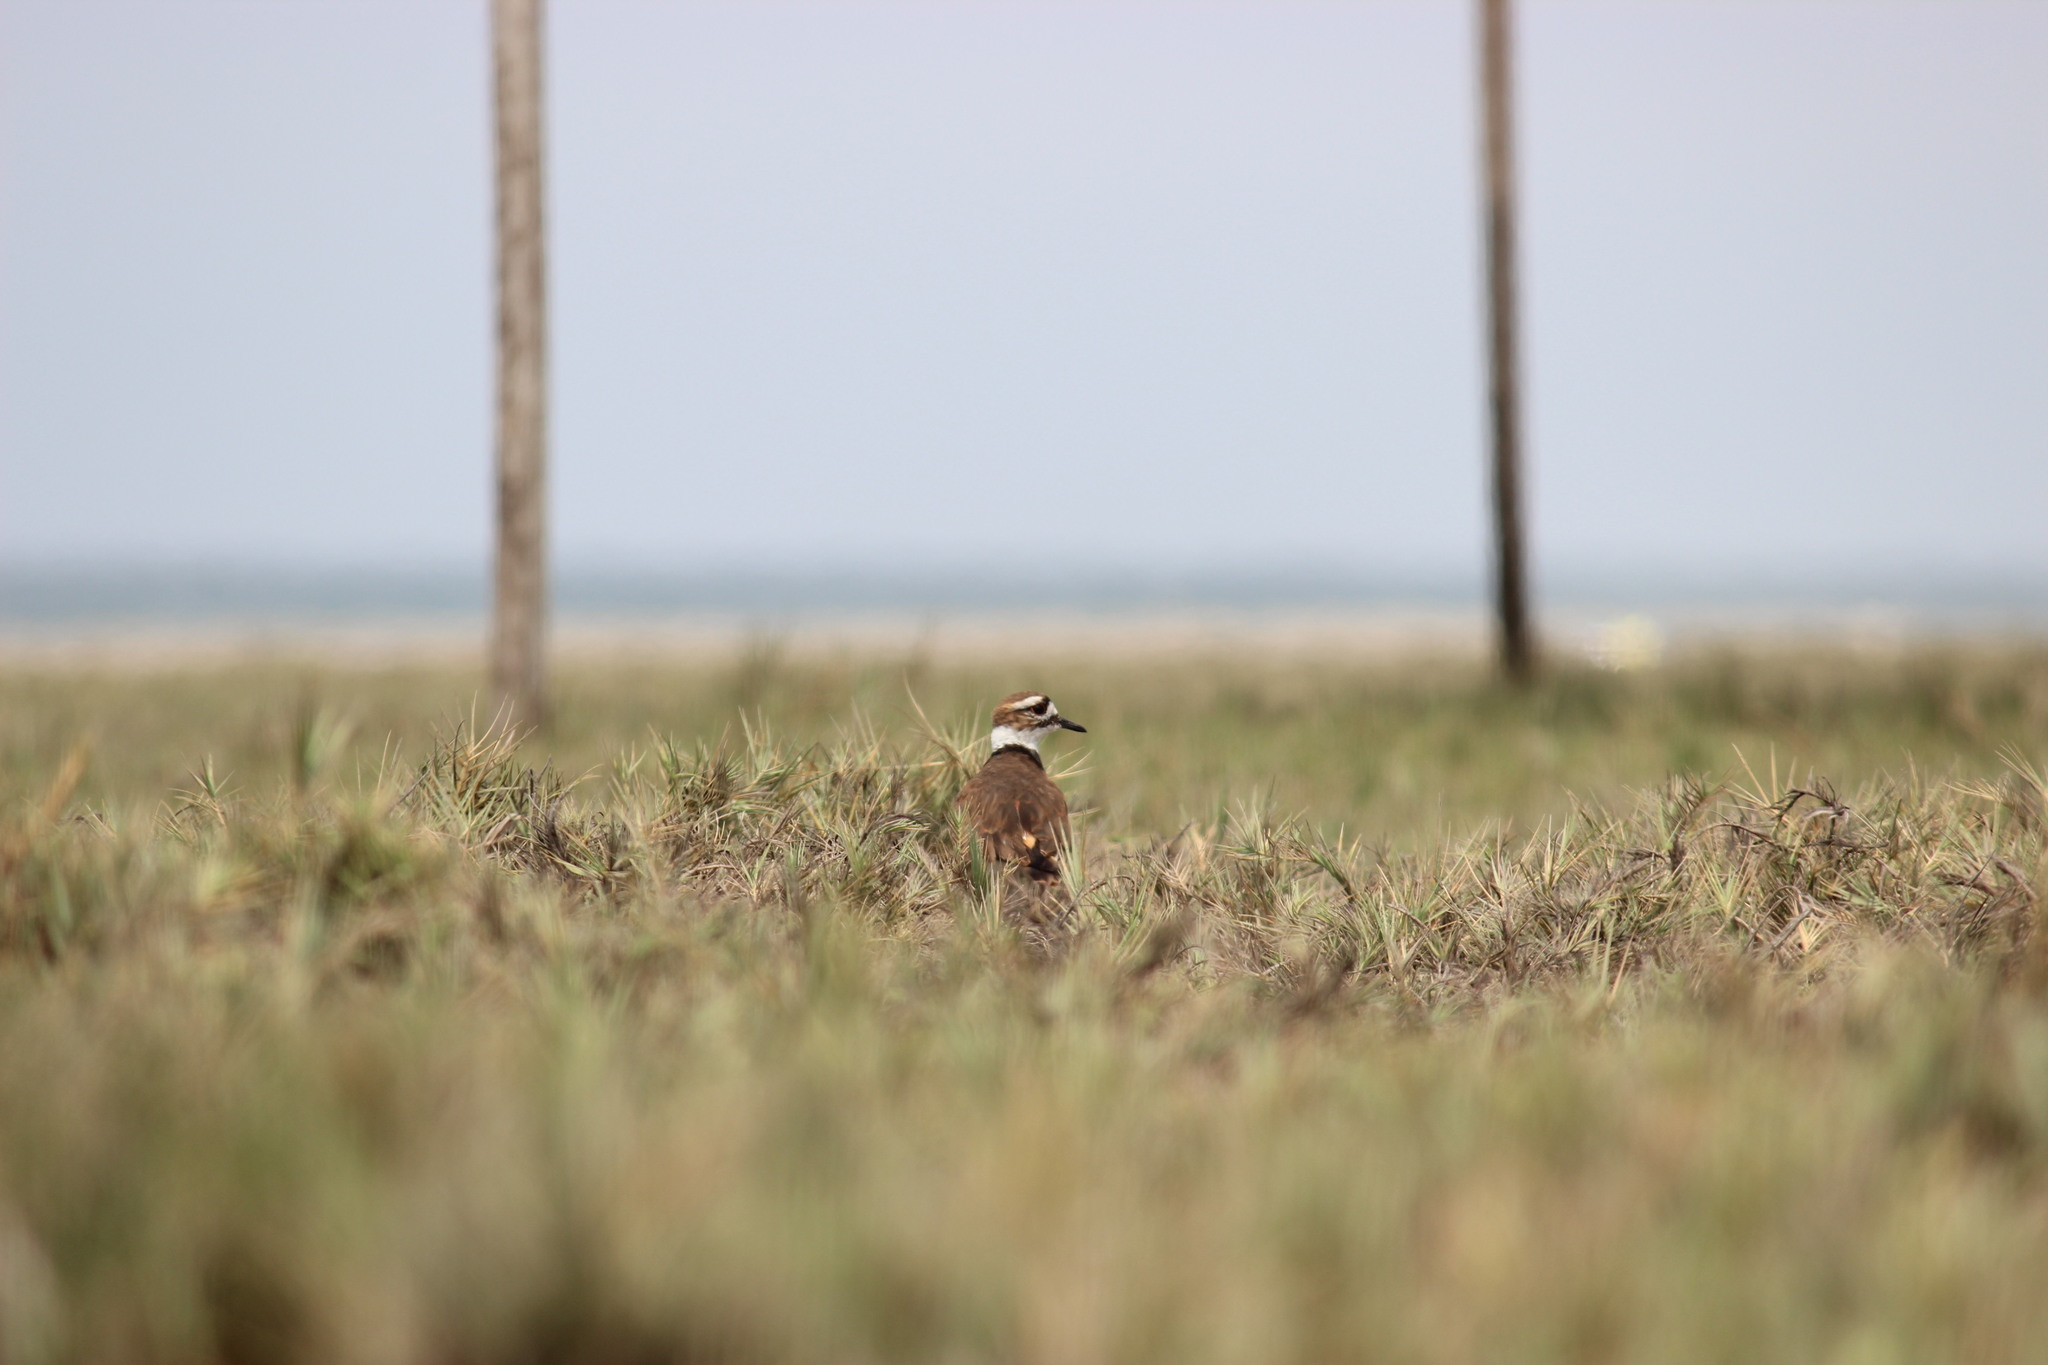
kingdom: Animalia
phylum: Chordata
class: Aves
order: Charadriiformes
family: Charadriidae
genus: Charadrius
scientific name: Charadrius vociferus
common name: Killdeer
